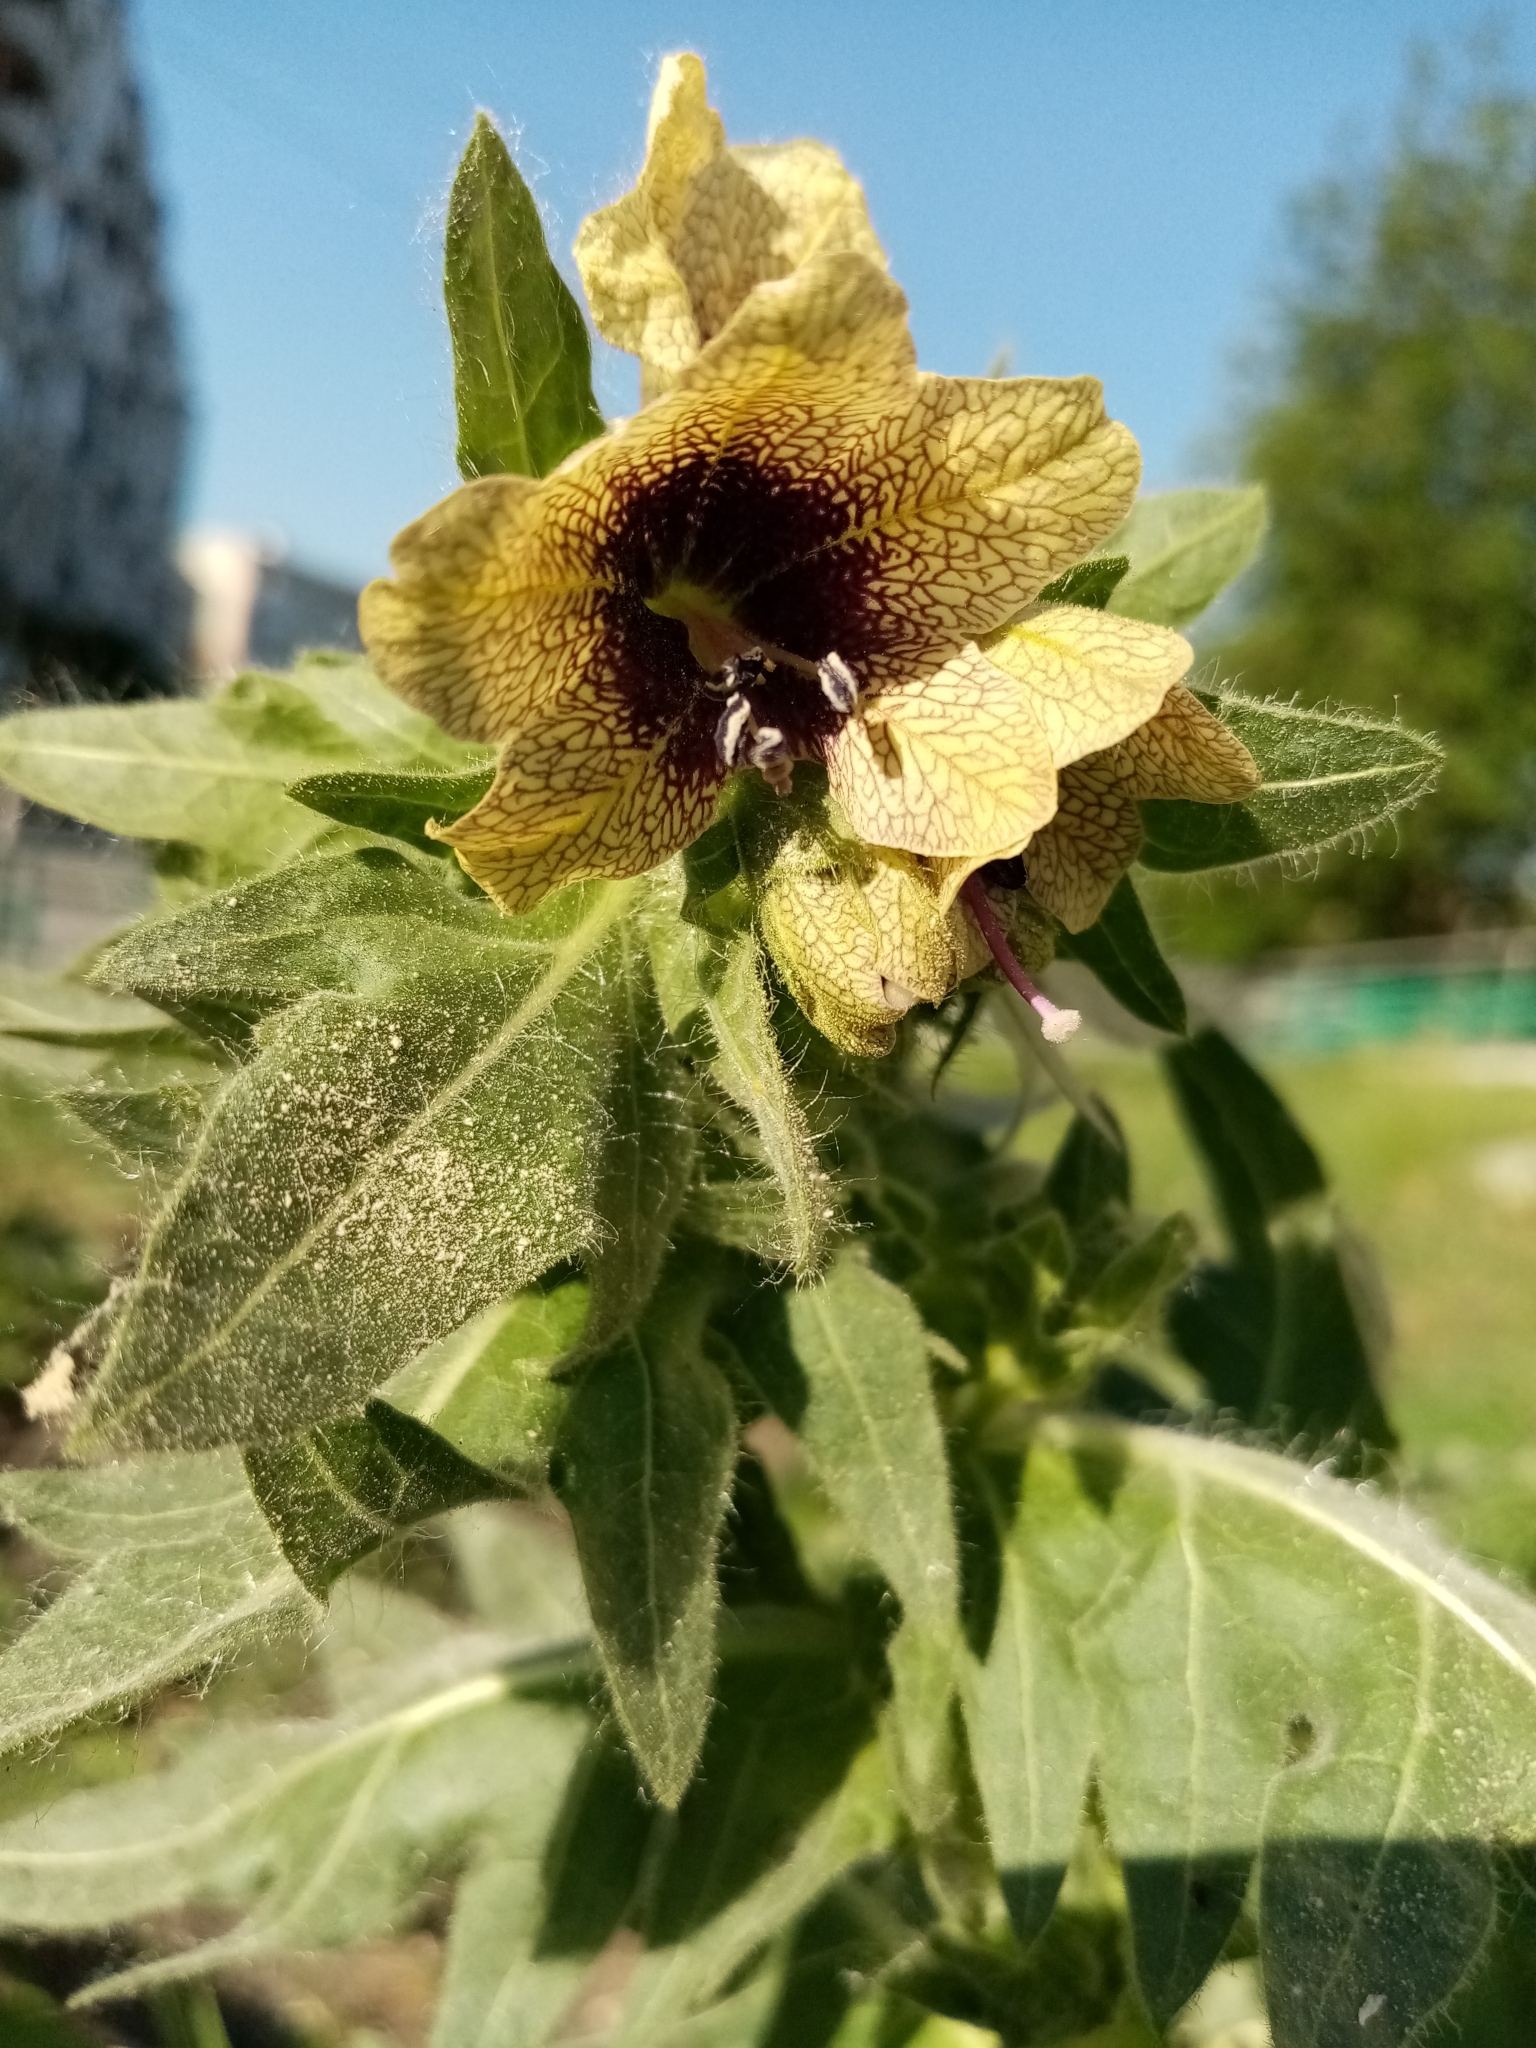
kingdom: Plantae
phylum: Tracheophyta
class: Magnoliopsida
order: Solanales
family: Solanaceae
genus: Hyoscyamus
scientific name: Hyoscyamus niger
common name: Henbane
